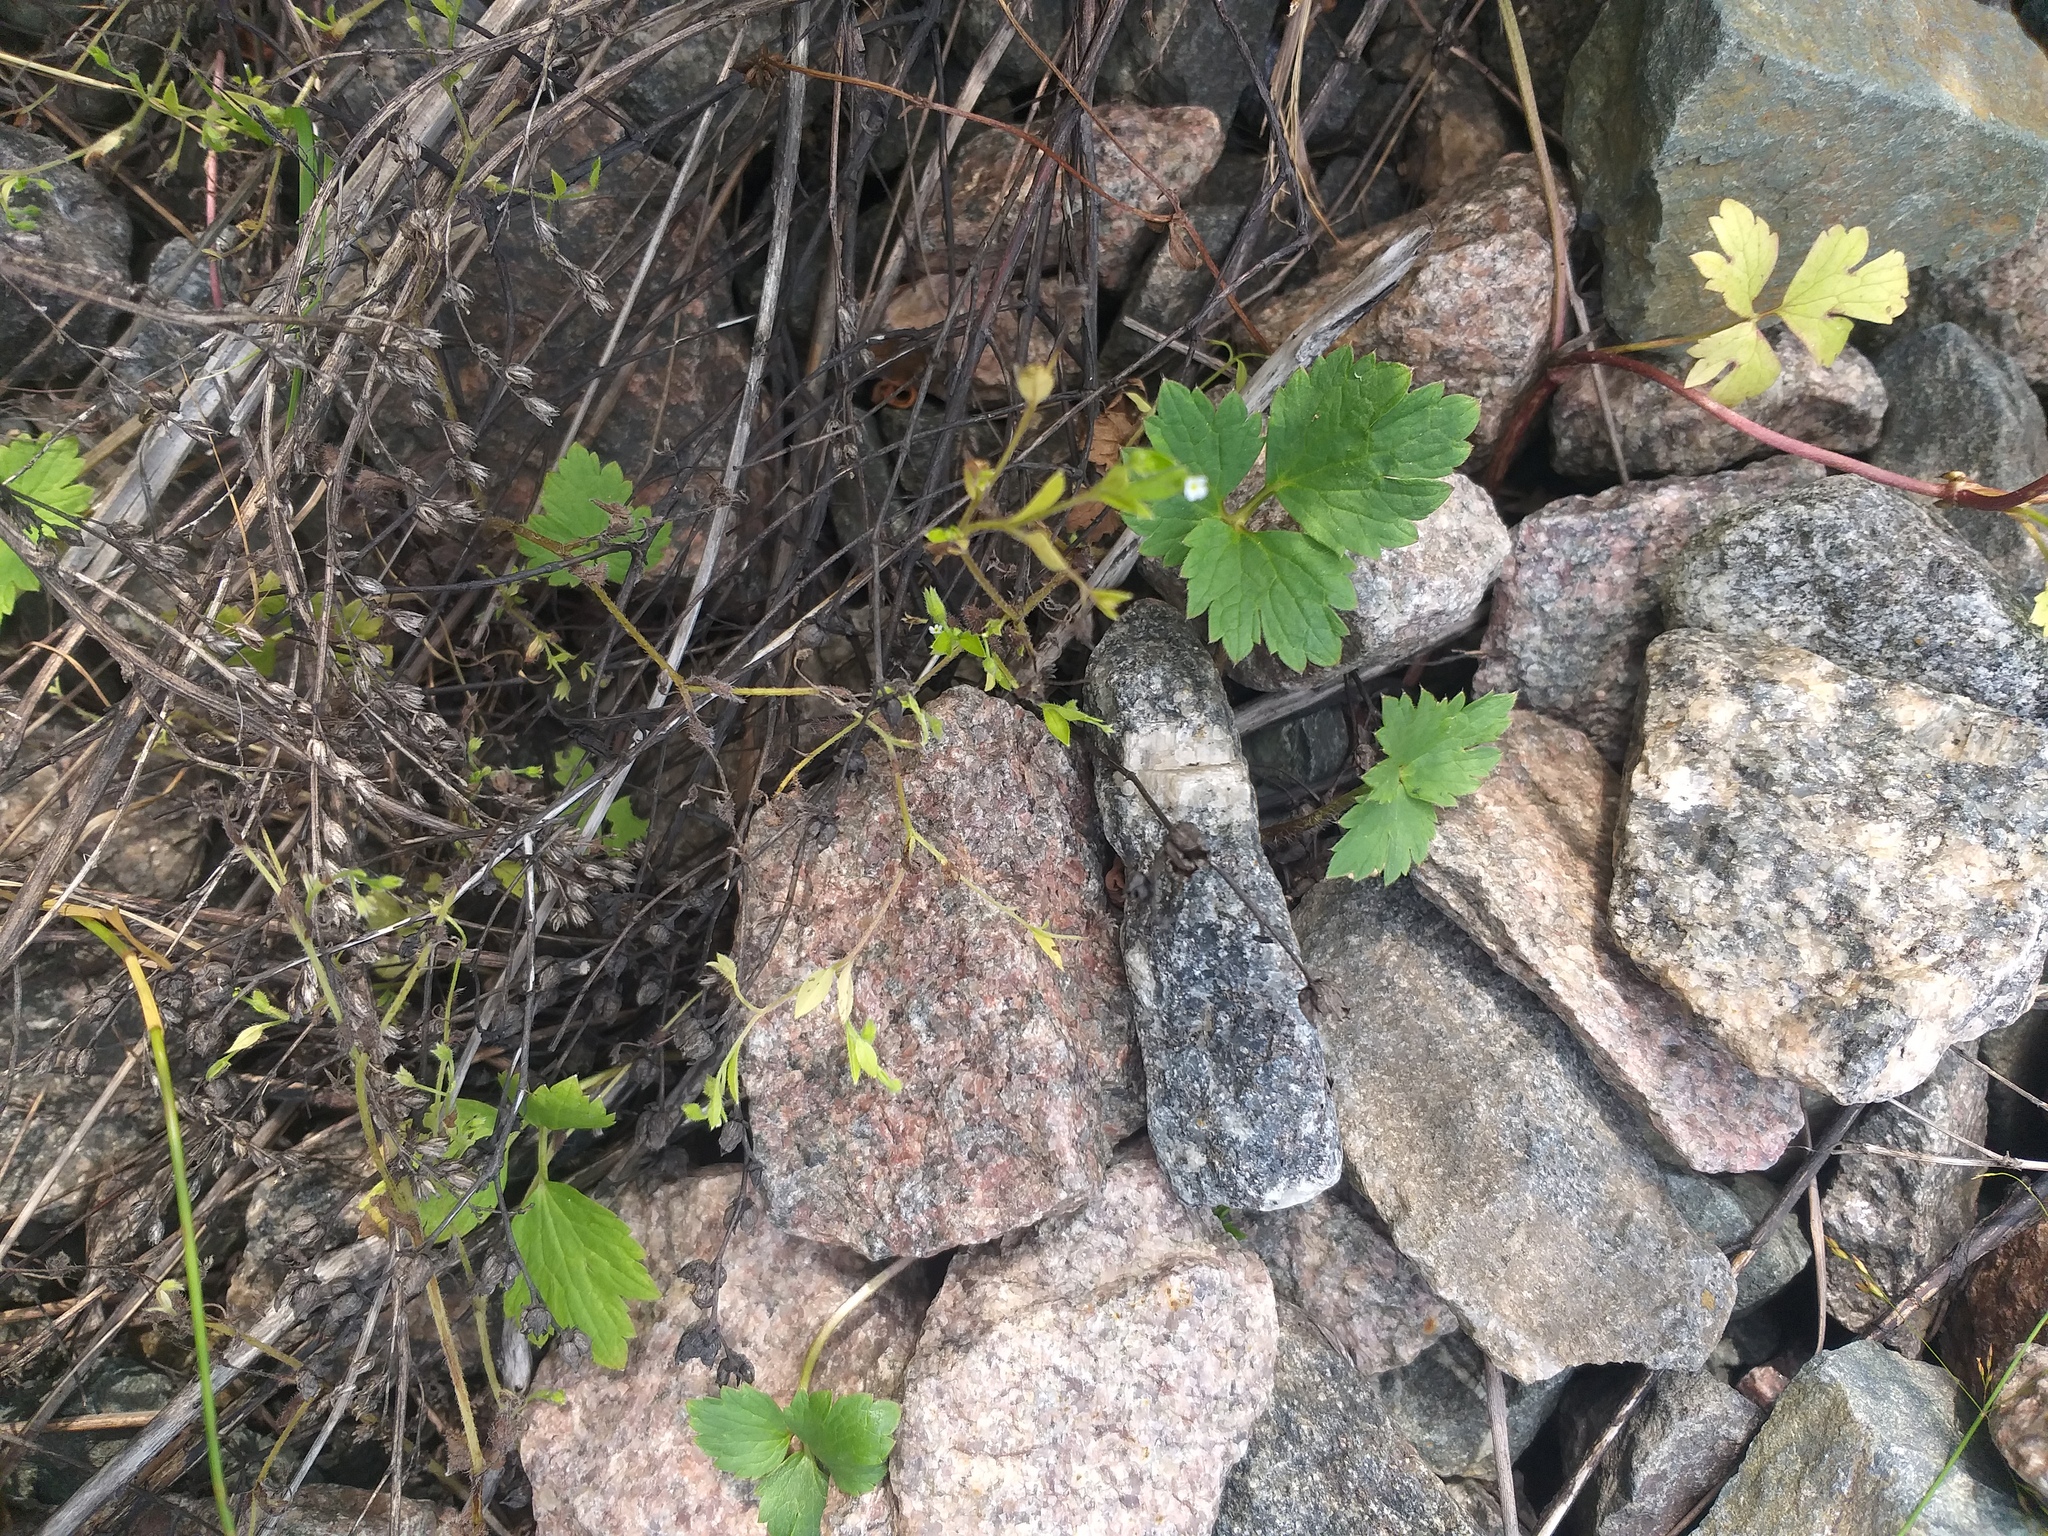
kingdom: Plantae
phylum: Tracheophyta
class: Magnoliopsida
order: Boraginales
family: Boraginaceae
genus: Myosotis
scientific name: Myosotis sparsiflora
